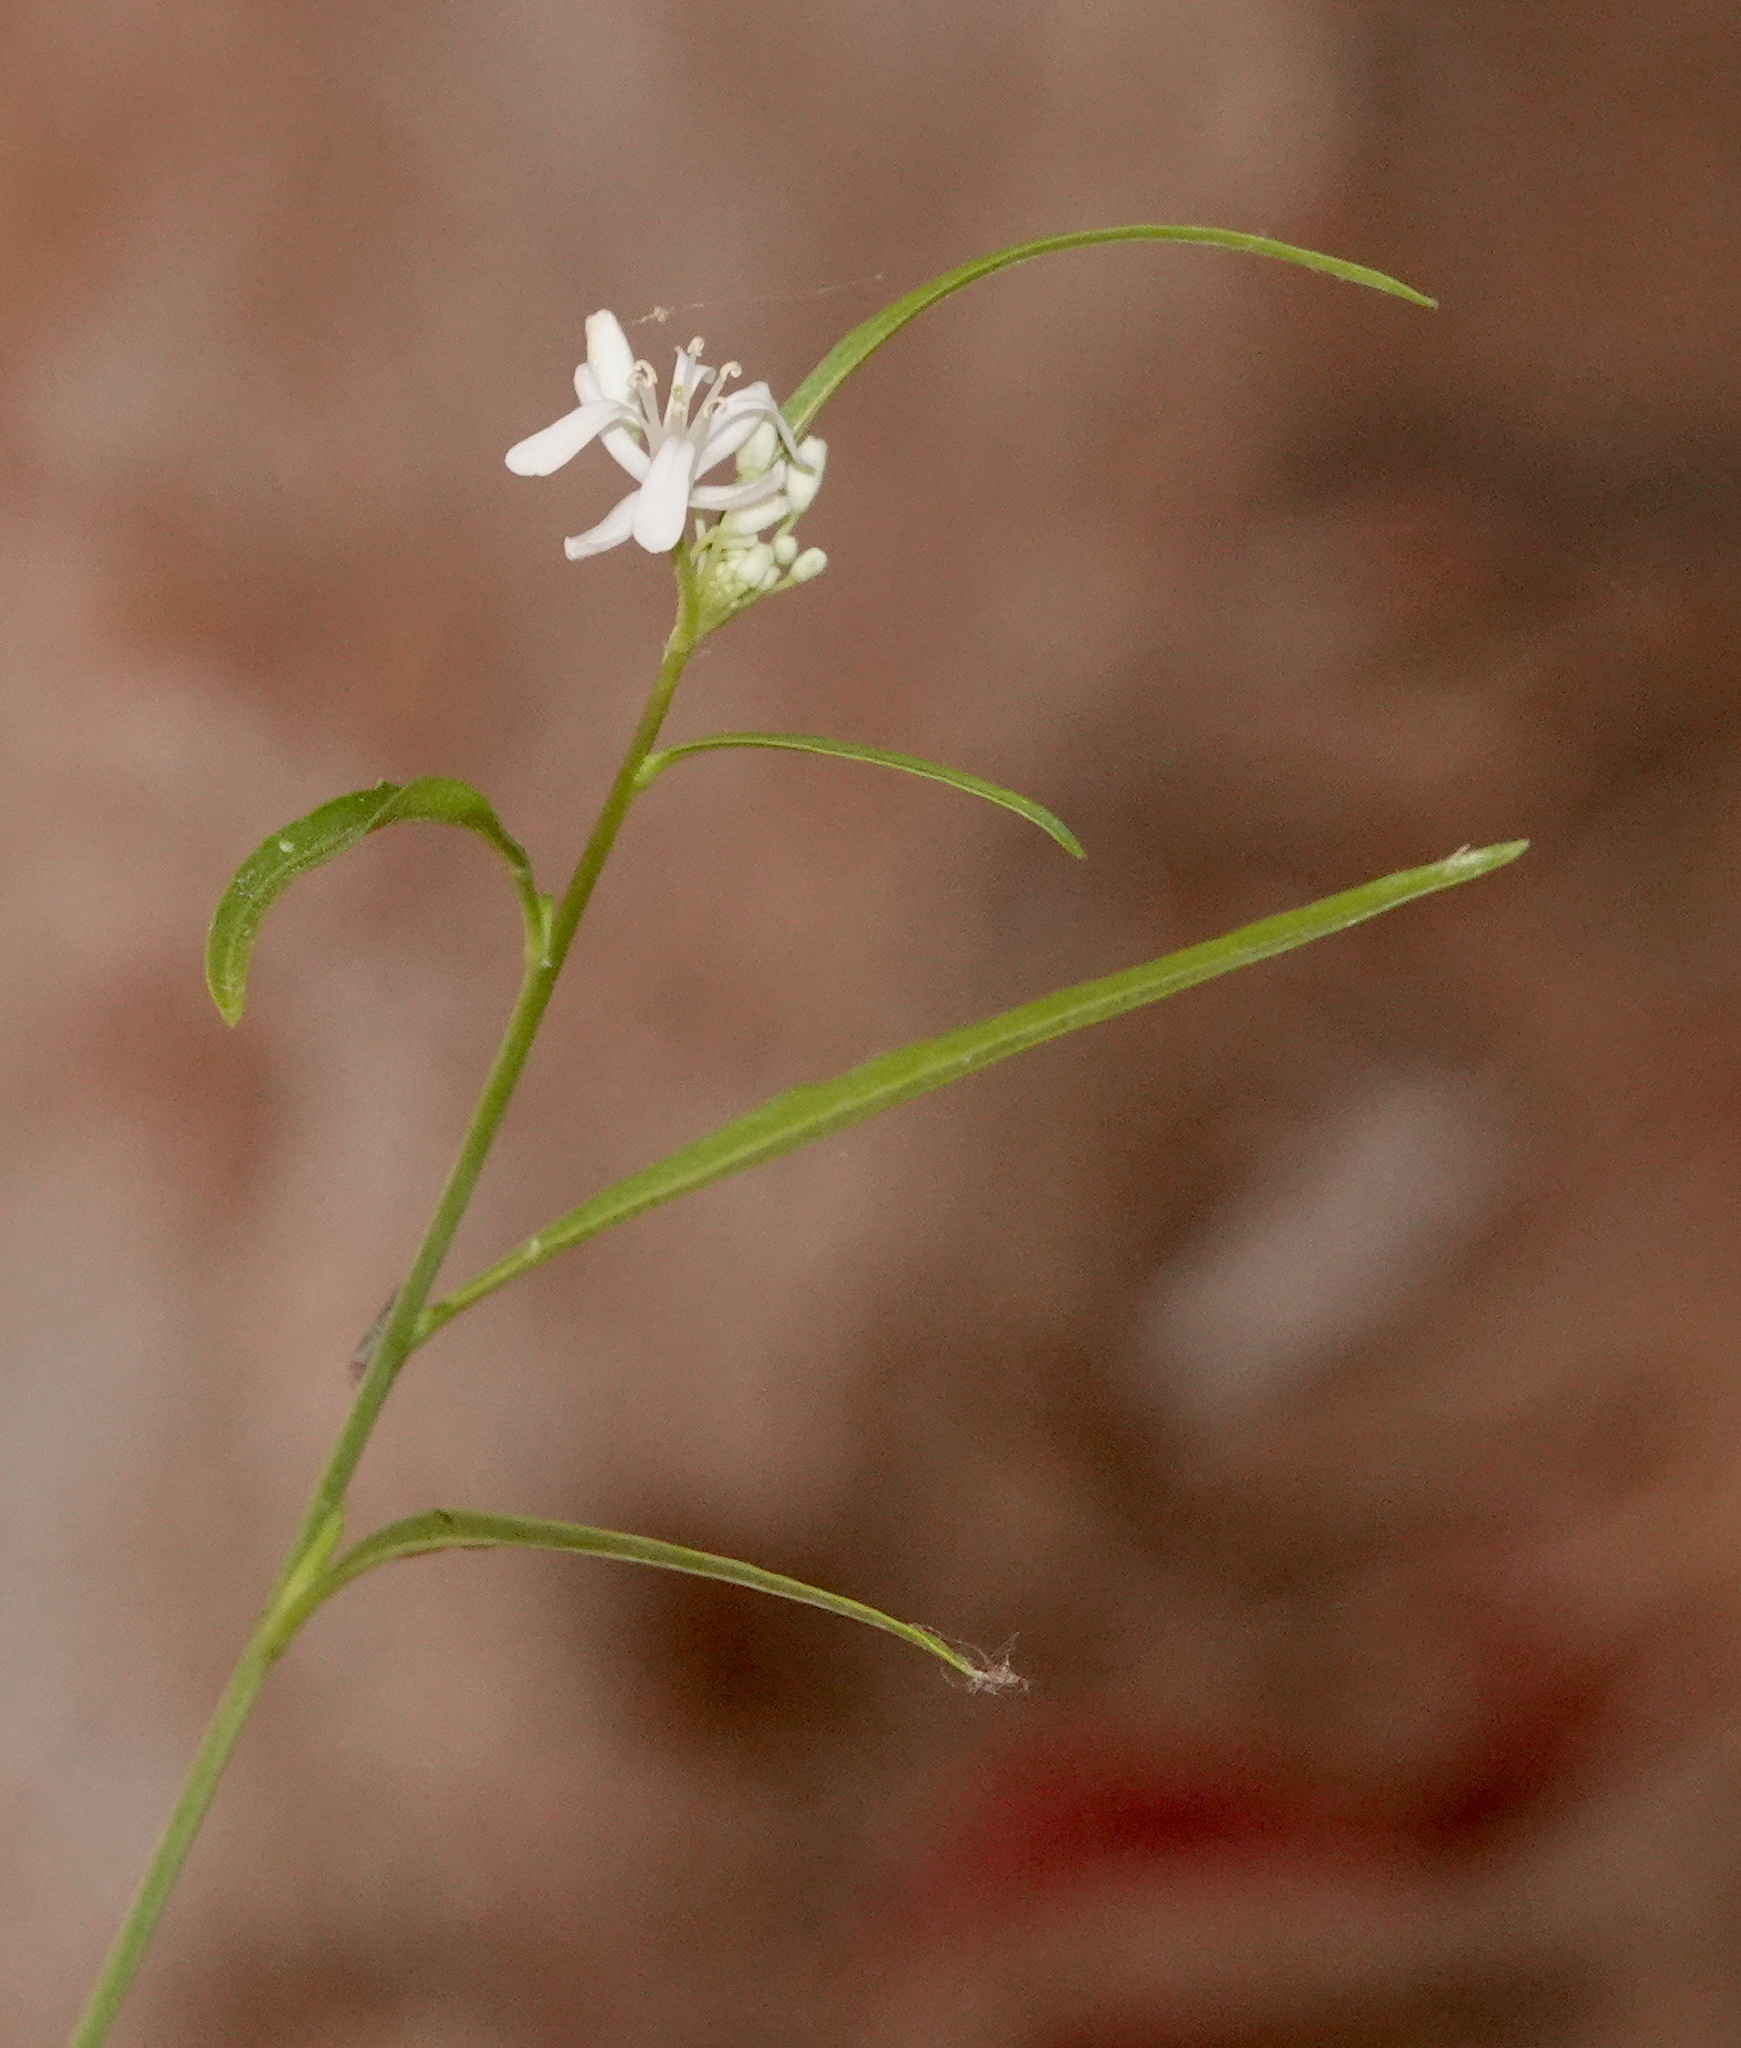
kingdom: Plantae
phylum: Tracheophyta
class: Magnoliopsida
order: Brassicales
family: Brassicaceae
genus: Sisymbrium
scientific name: Sisymbrium altissimum
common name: Tall rocket
